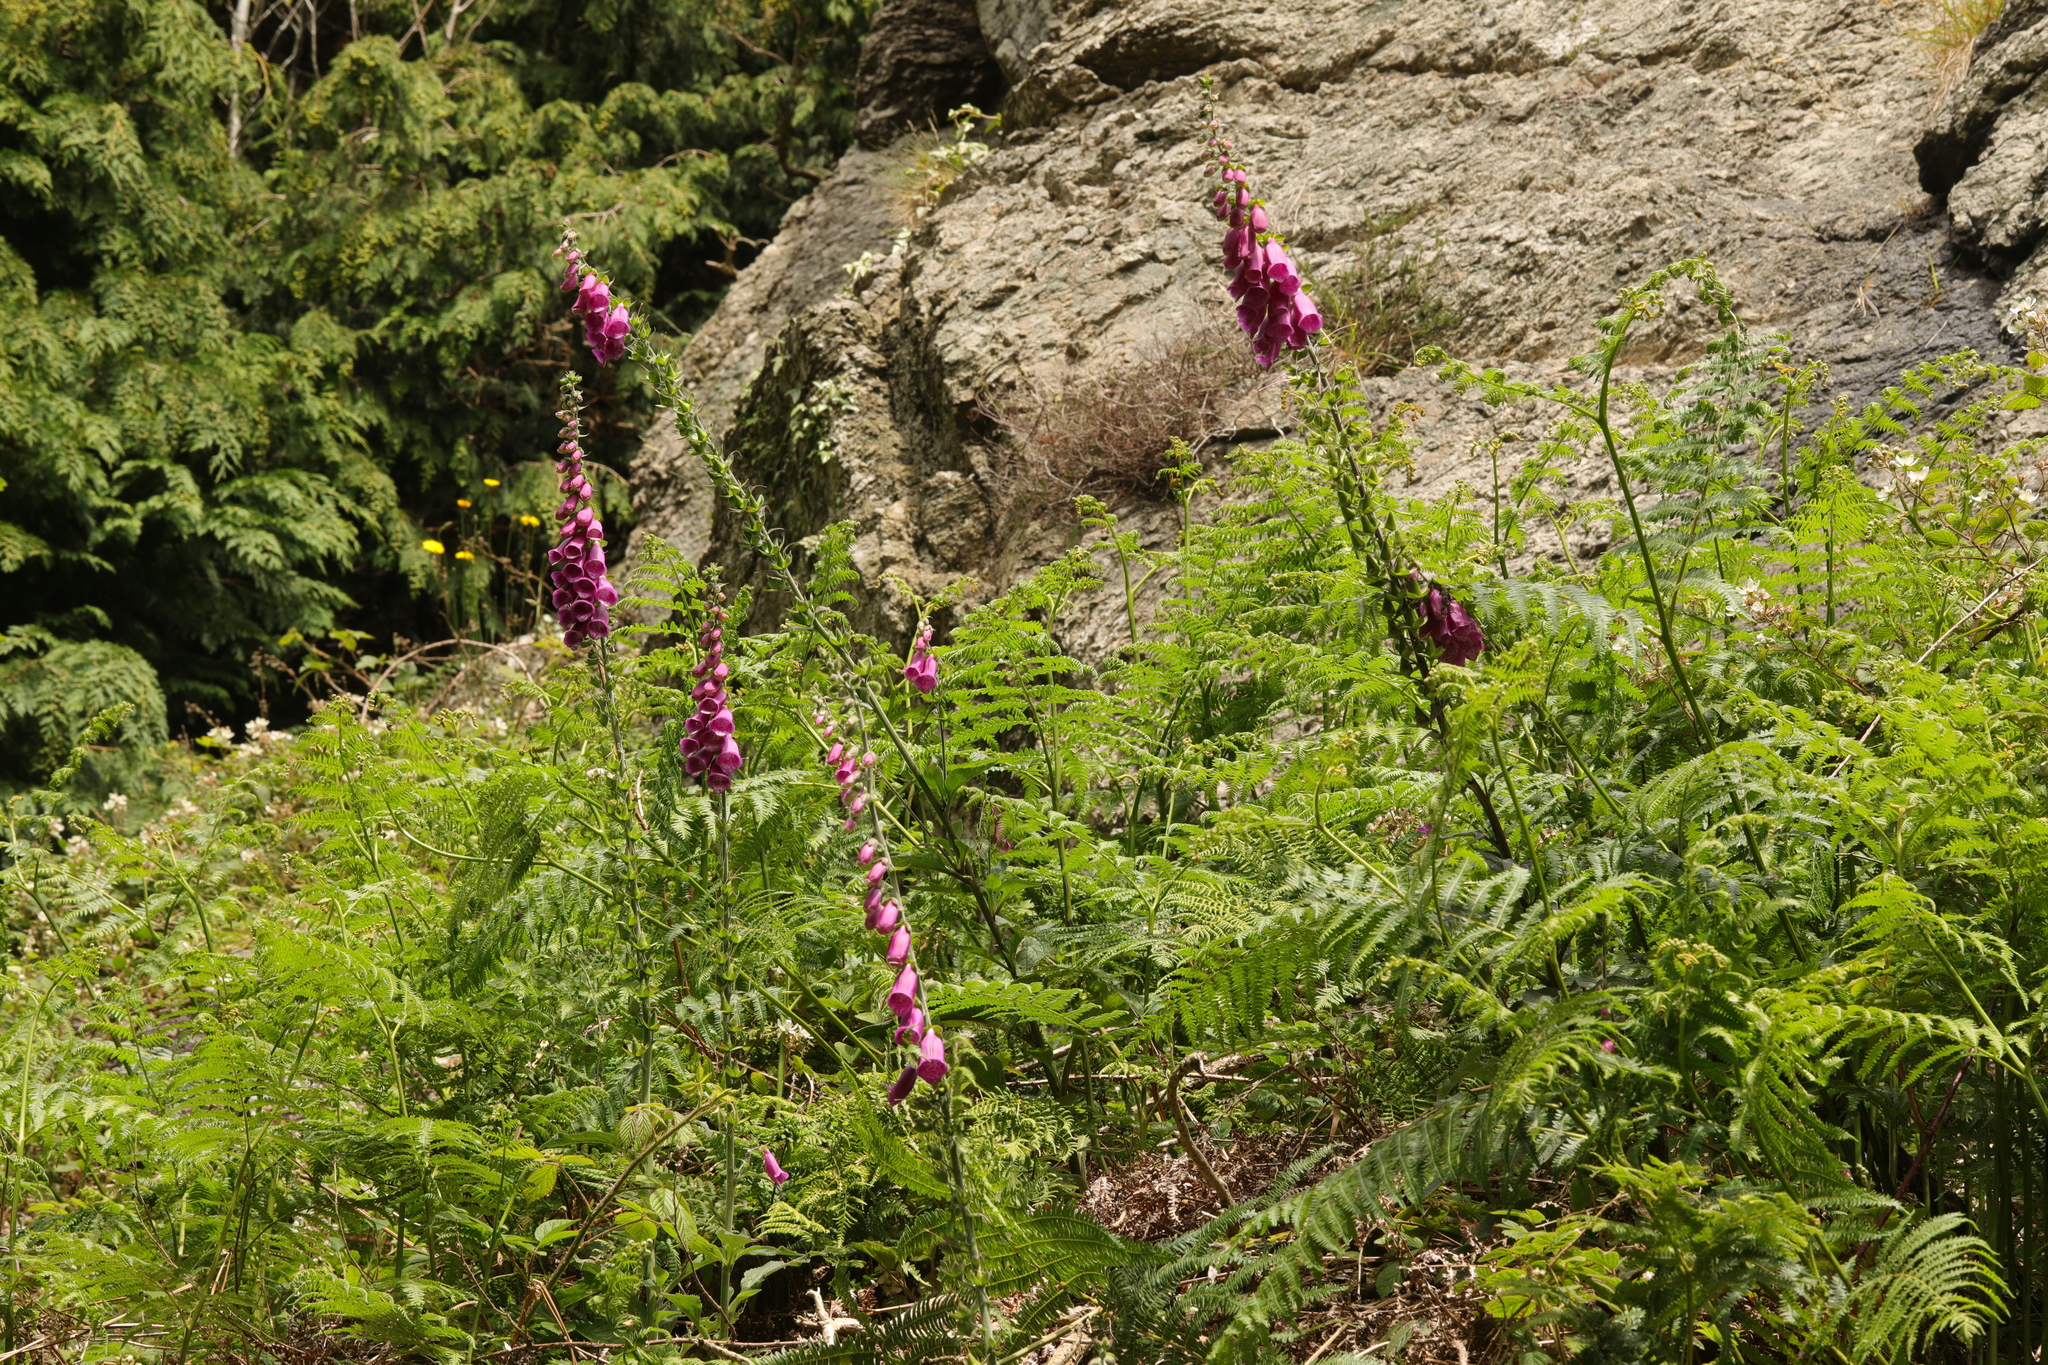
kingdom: Plantae
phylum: Tracheophyta
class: Magnoliopsida
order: Lamiales
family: Plantaginaceae
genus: Digitalis
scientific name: Digitalis purpurea
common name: Foxglove
